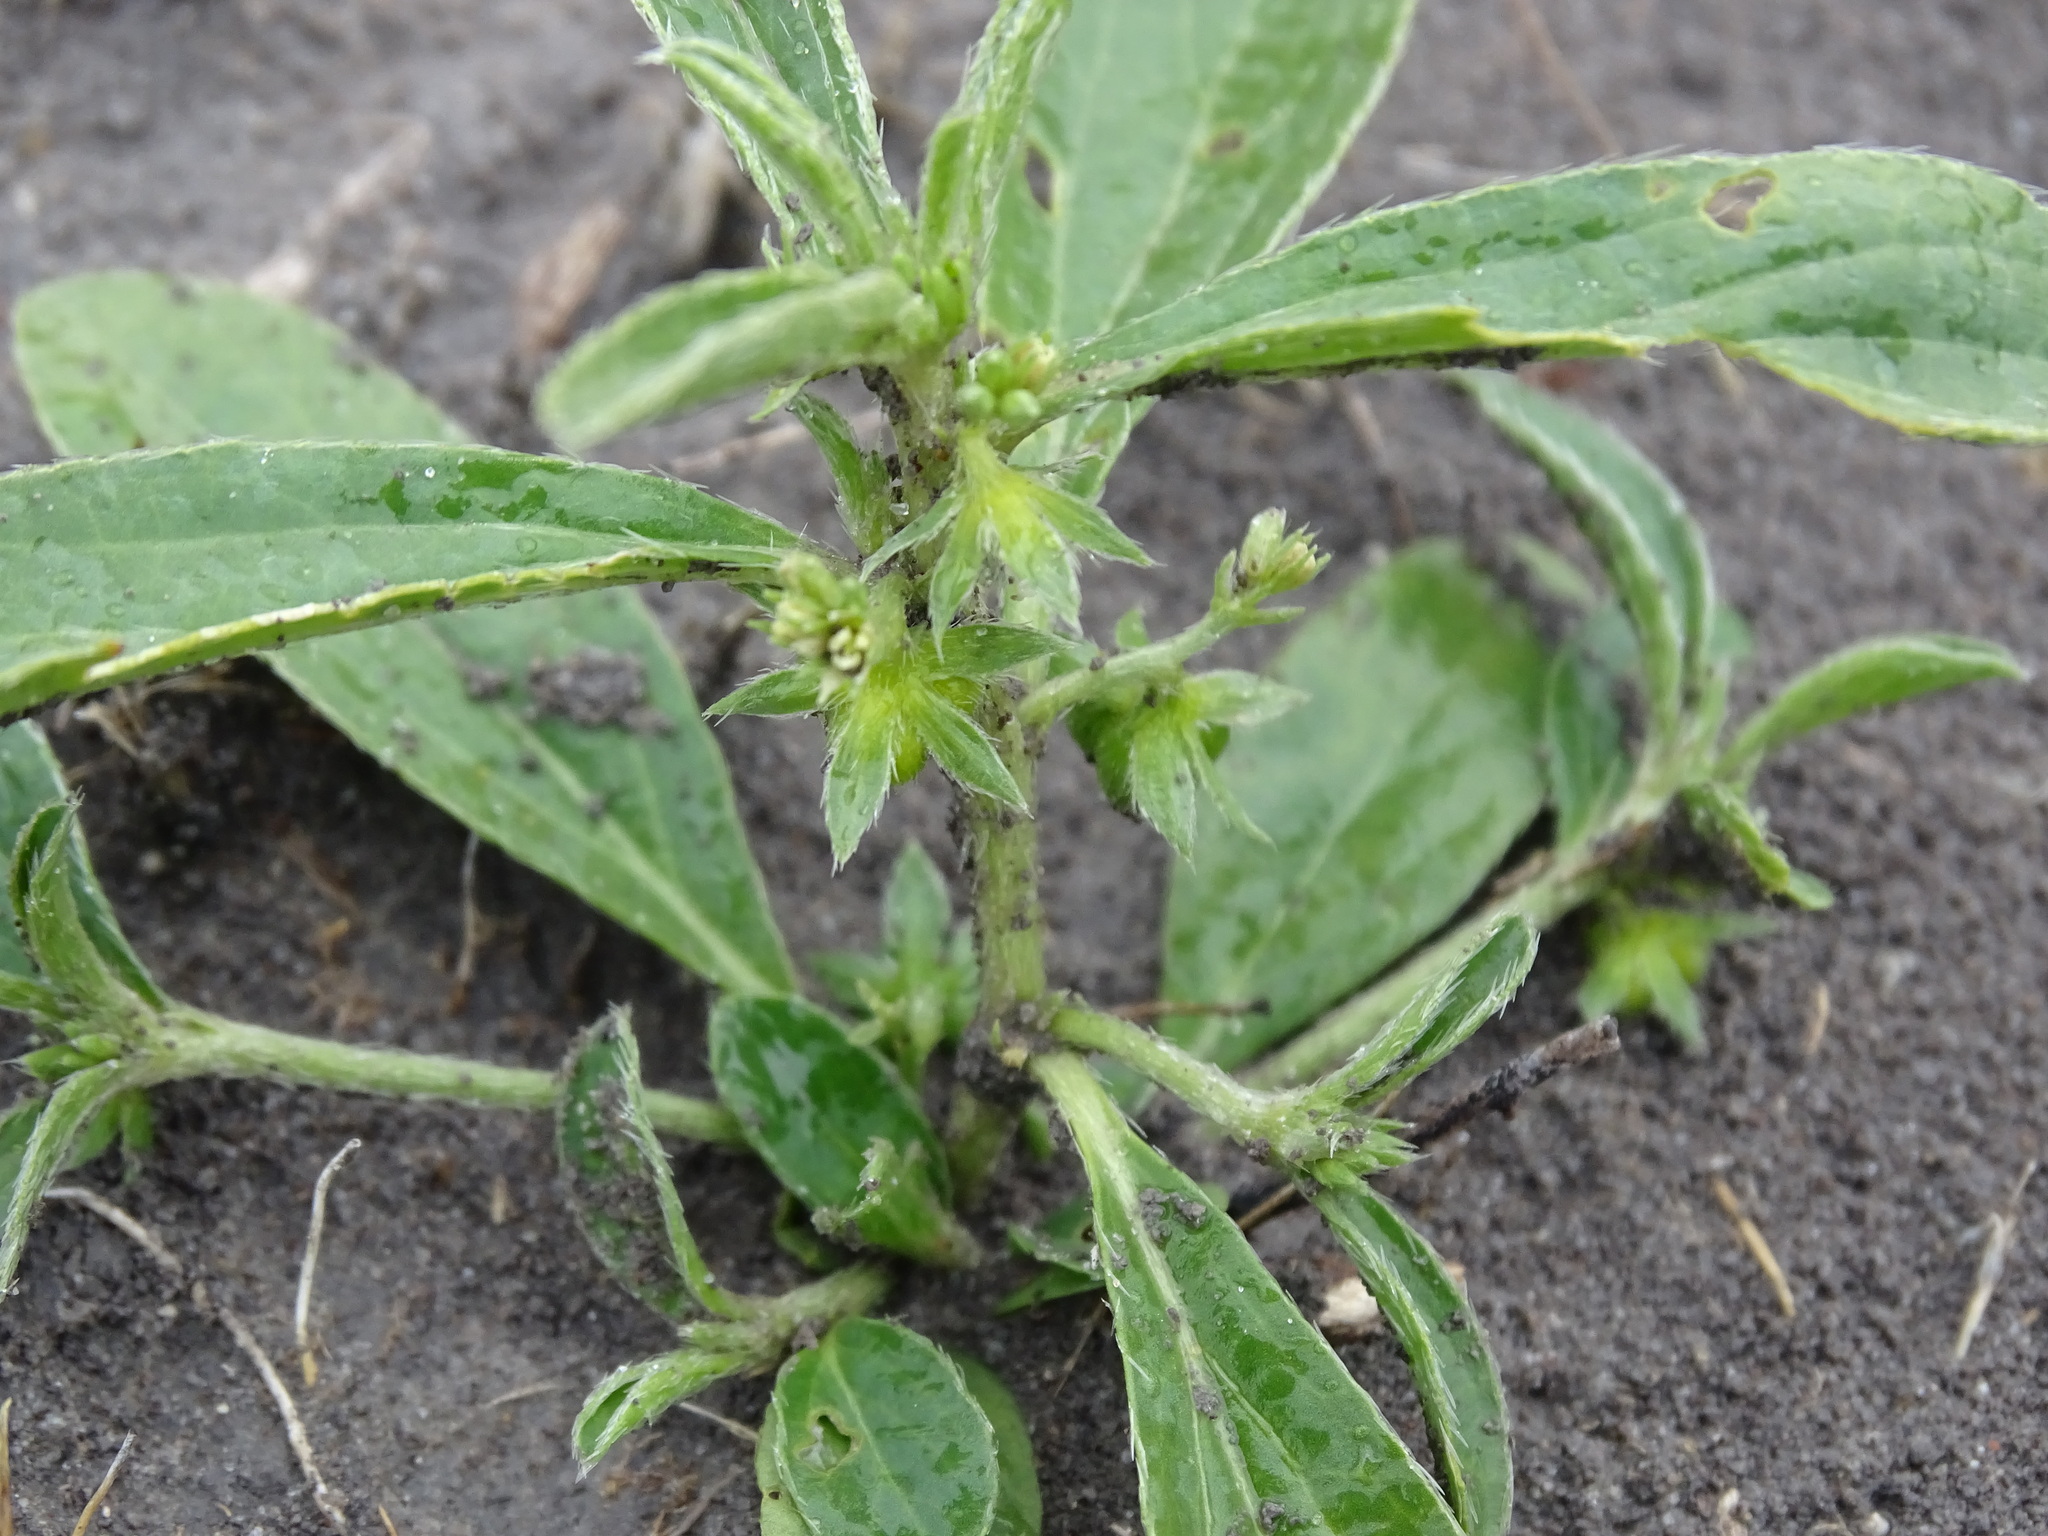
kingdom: Plantae
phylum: Tracheophyta
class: Magnoliopsida
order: Malpighiales
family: Euphorbiaceae
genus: Ditaxis
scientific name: Ditaxis humilis
